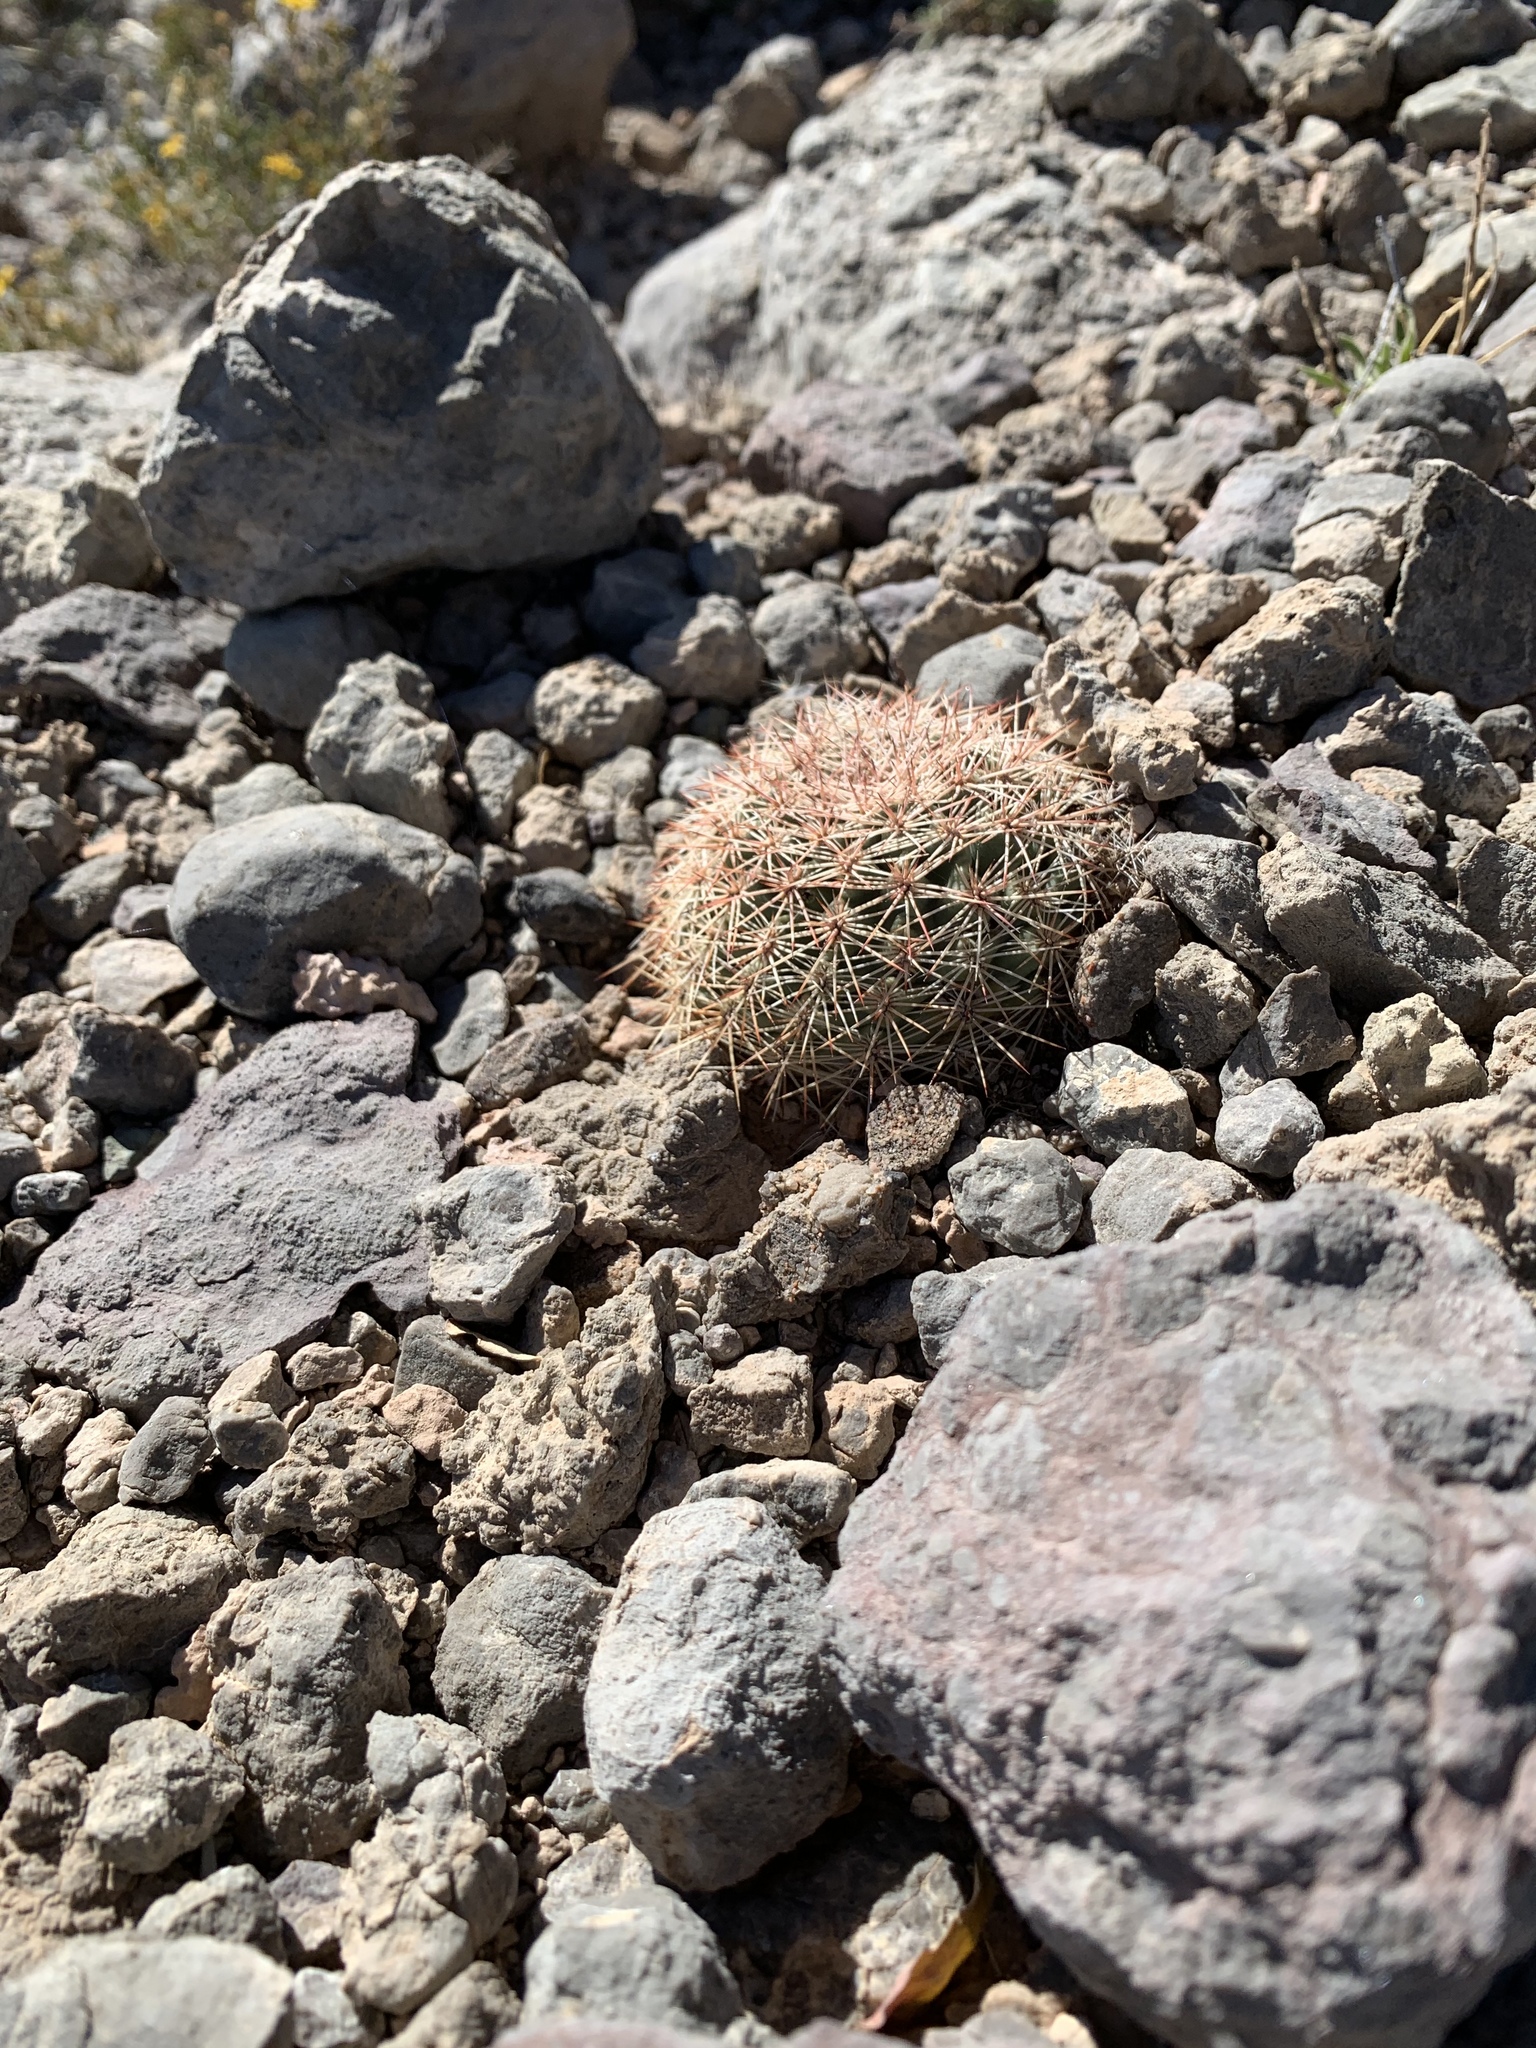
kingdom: Plantae
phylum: Tracheophyta
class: Magnoliopsida
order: Caryophyllales
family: Cactaceae
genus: Echinocereus
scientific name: Echinocereus dasyacanthus
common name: Spiny hedgehog cactus
